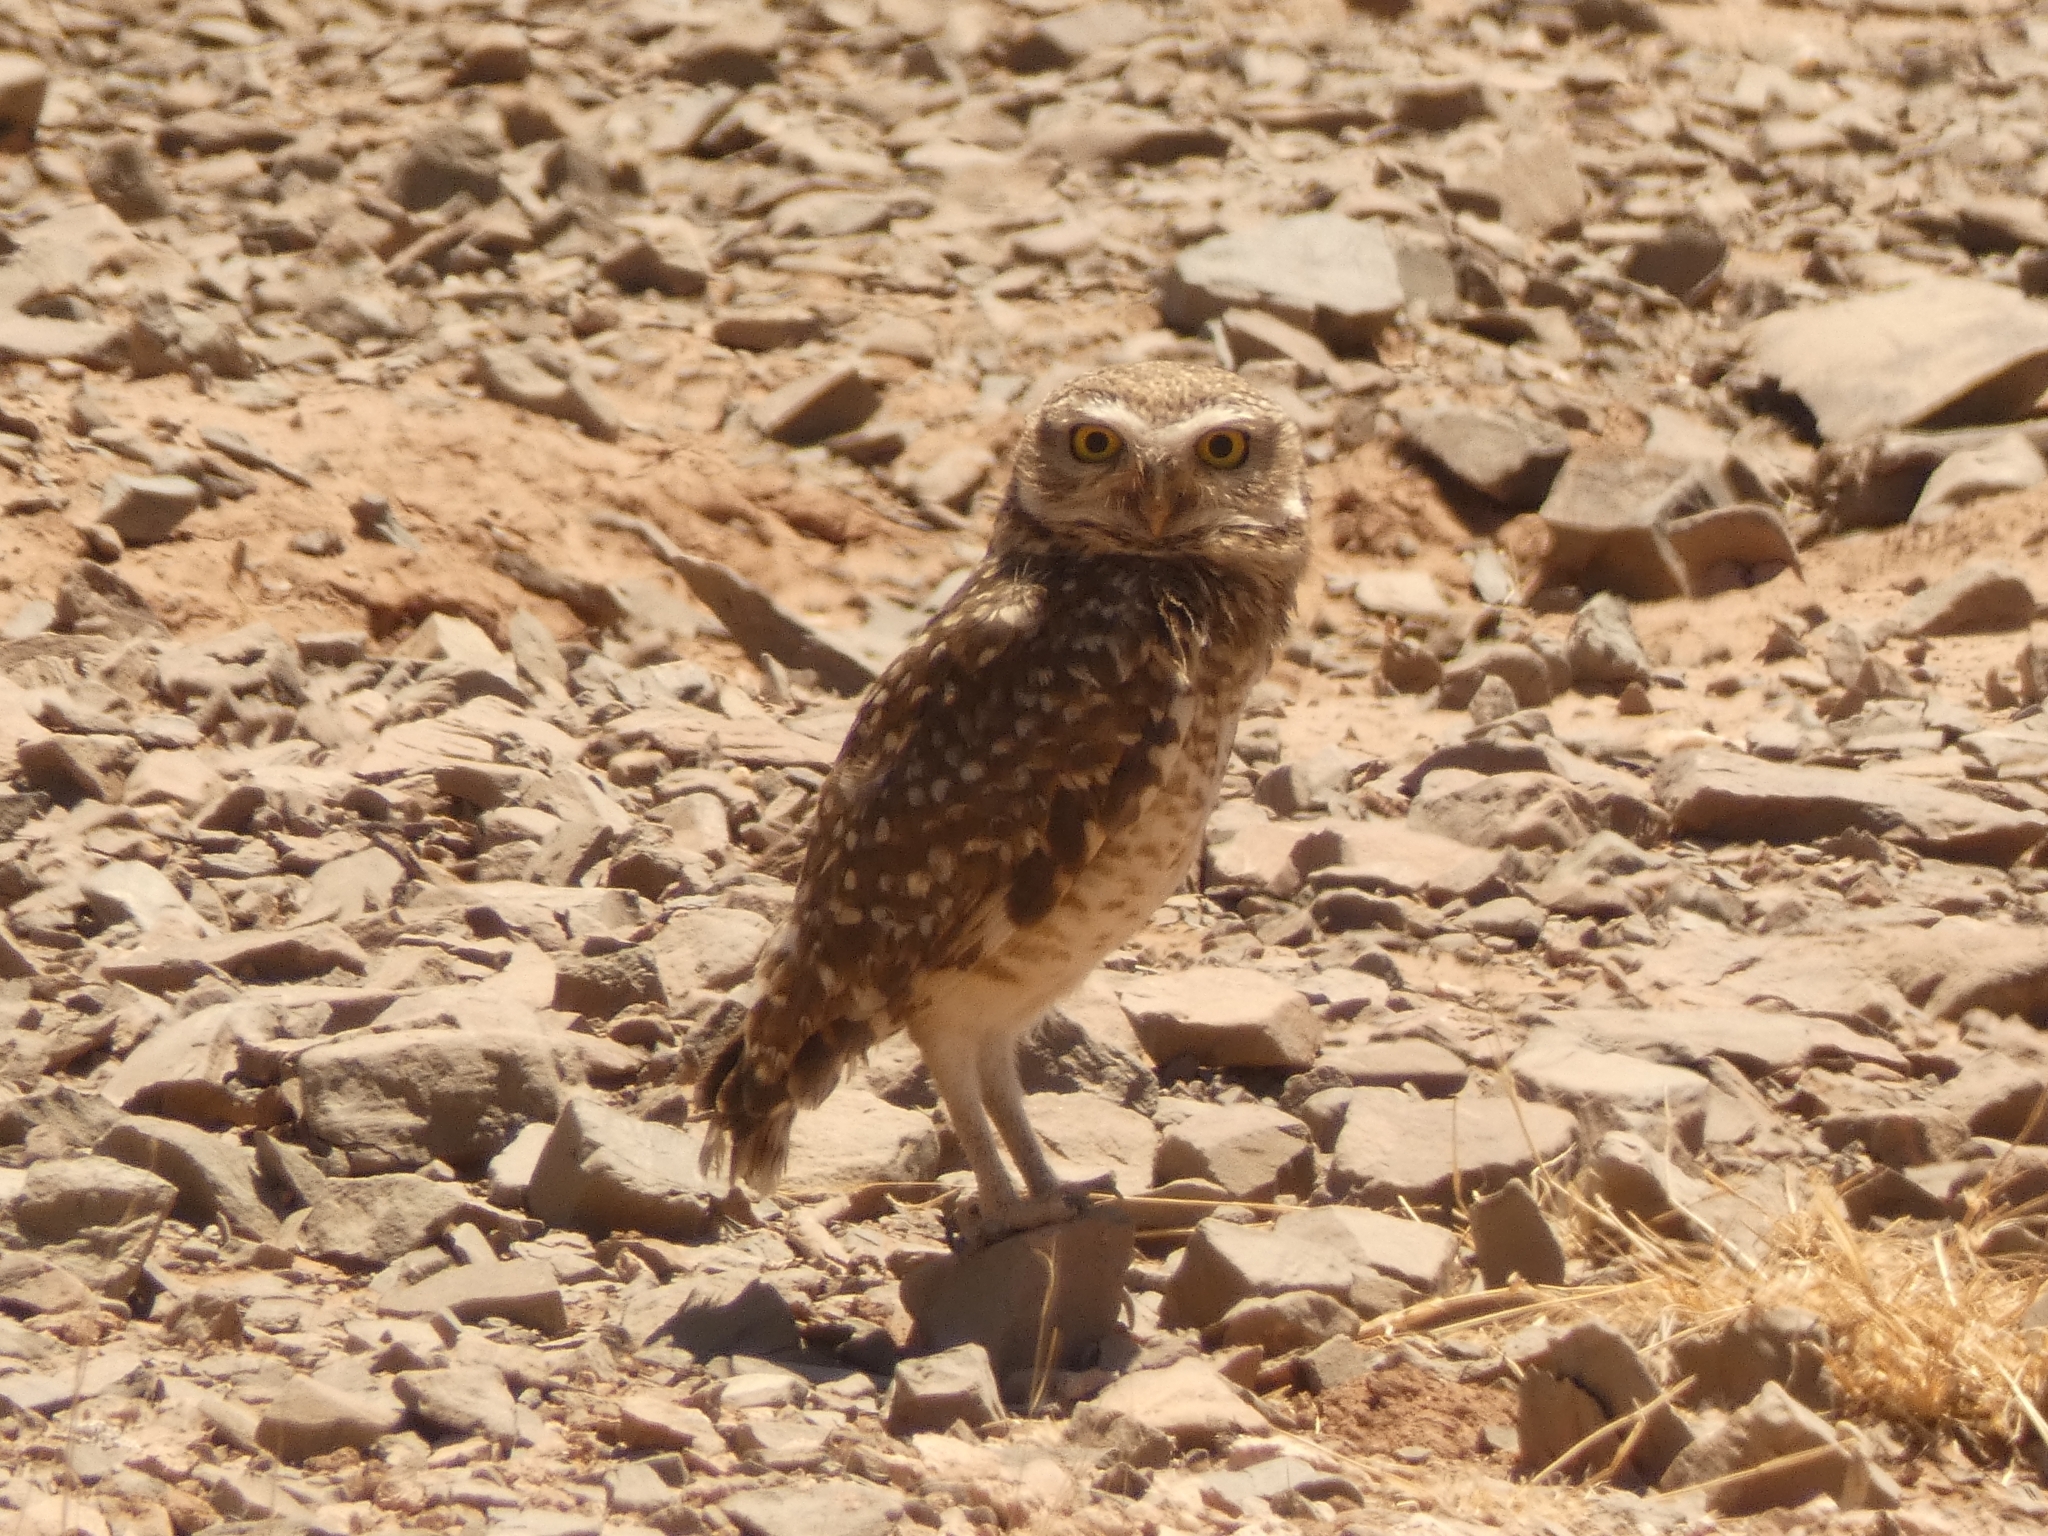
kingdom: Animalia
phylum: Chordata
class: Aves
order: Strigiformes
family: Strigidae
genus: Athene
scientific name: Athene cunicularia
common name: Burrowing owl
